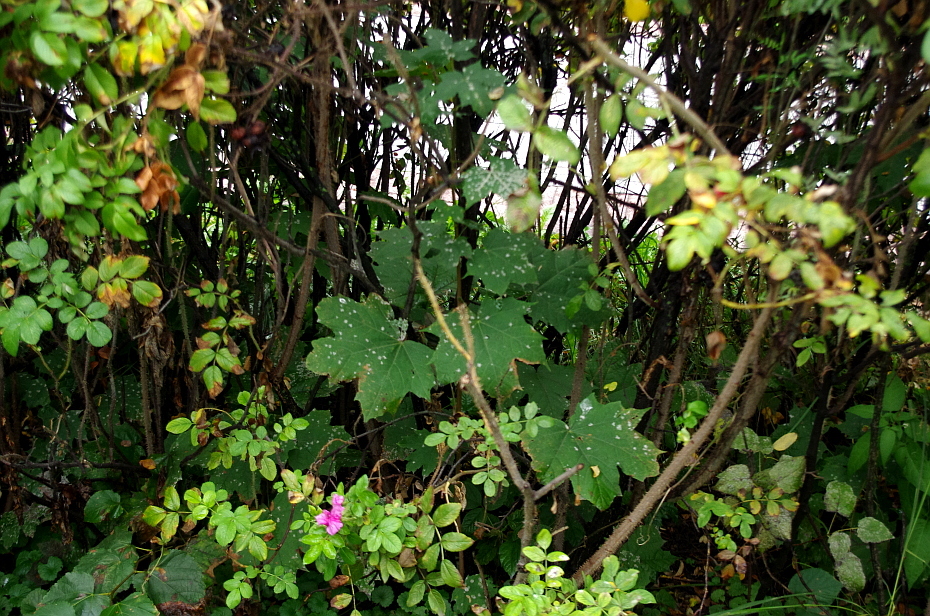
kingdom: Plantae
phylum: Tracheophyta
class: Magnoliopsida
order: Sapindales
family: Sapindaceae
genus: Acer
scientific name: Acer platanoides
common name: Norway maple
